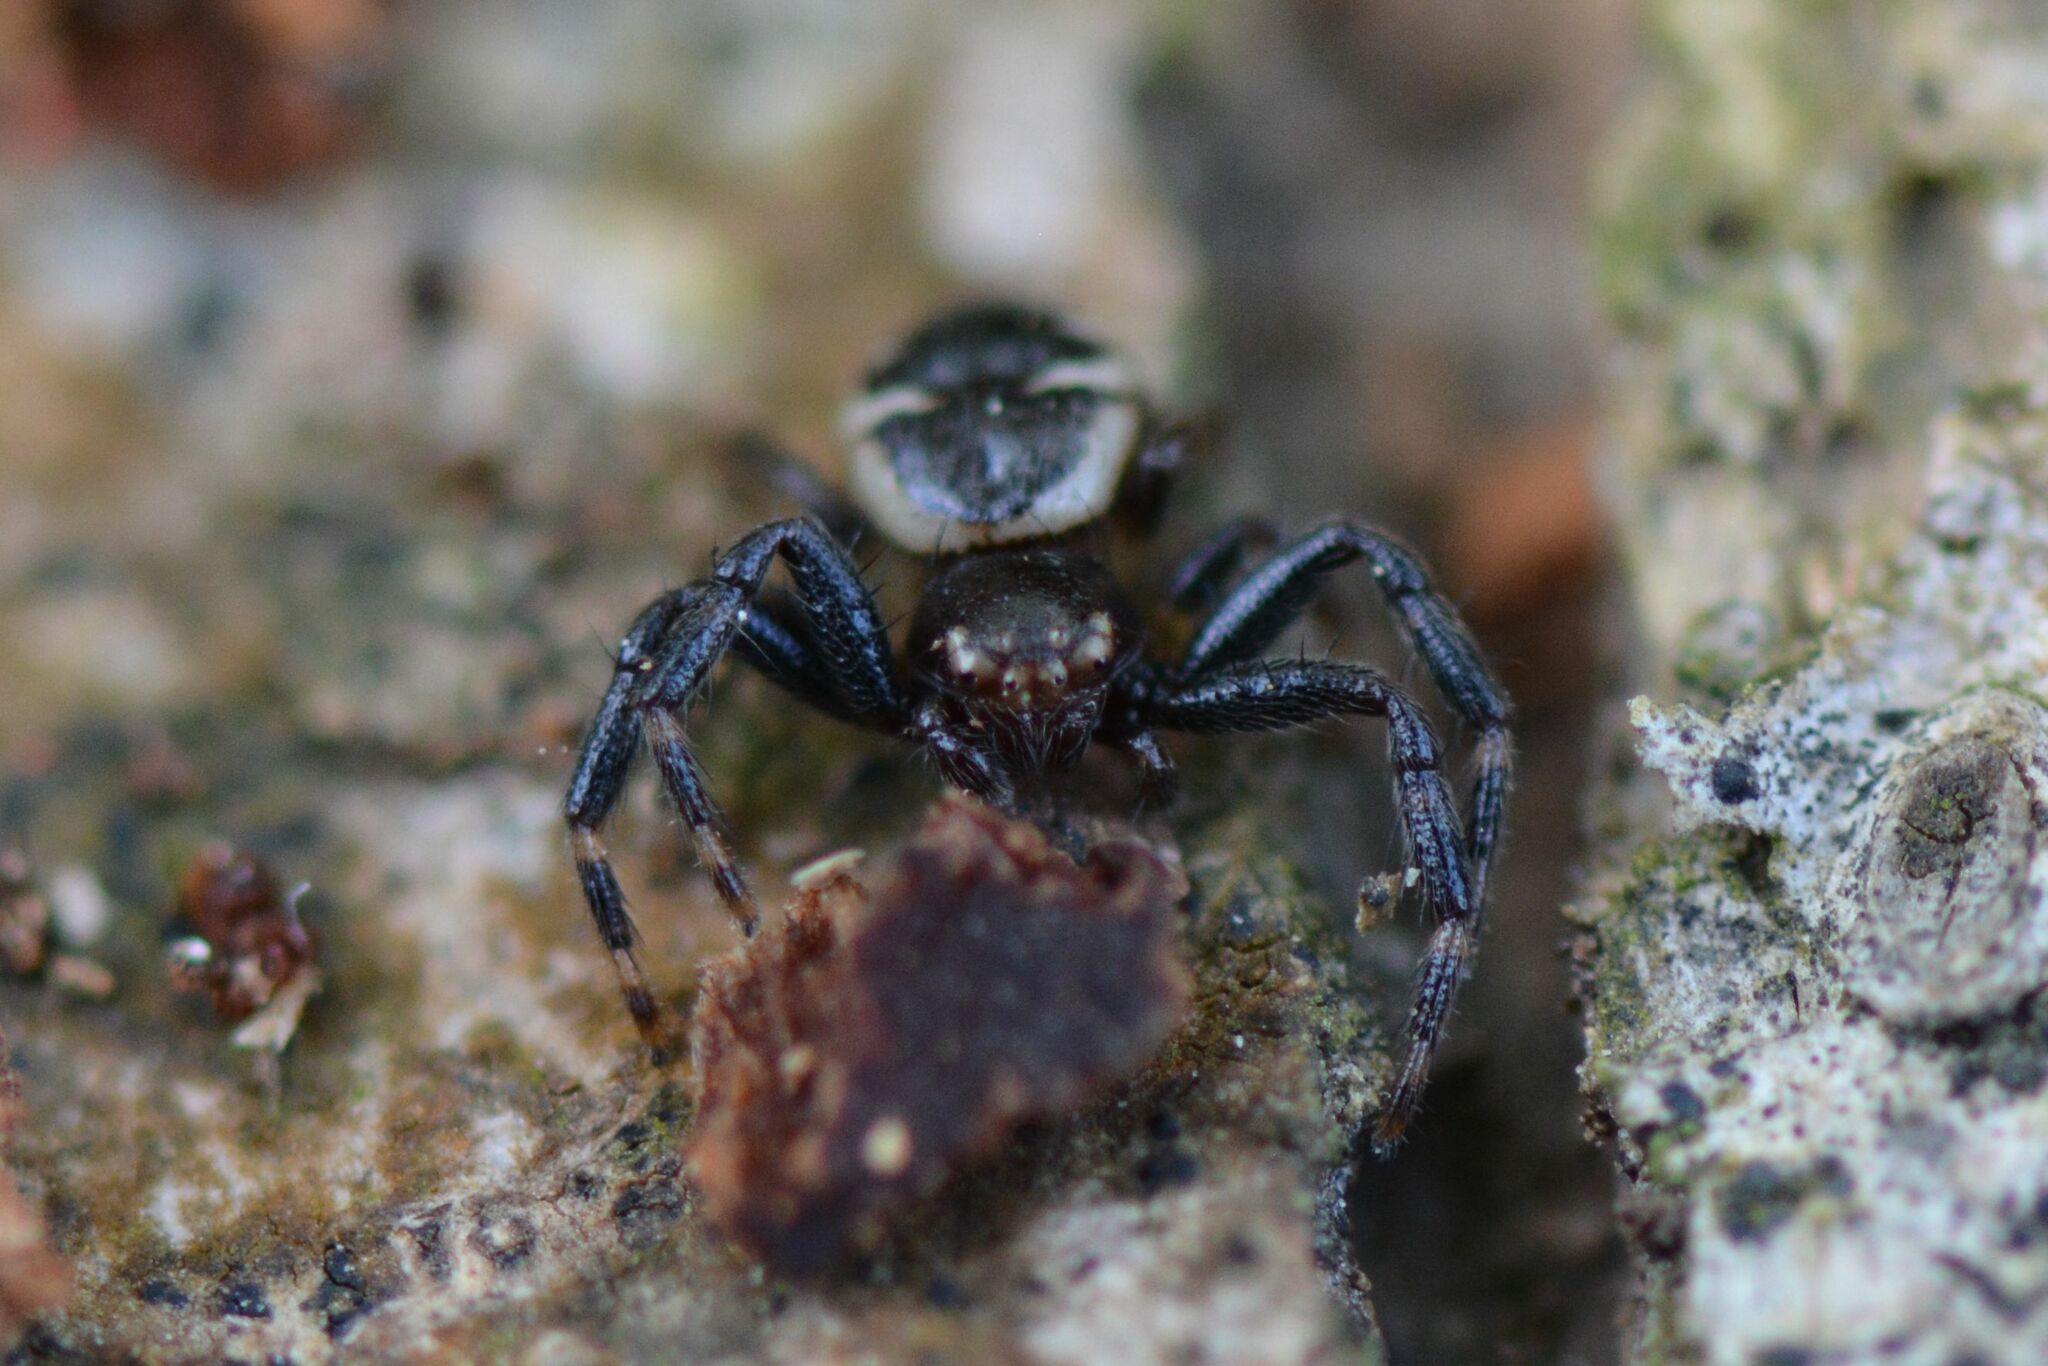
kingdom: Animalia
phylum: Arthropoda
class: Arachnida
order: Araneae
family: Thomisidae
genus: Synema
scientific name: Synema globosum
